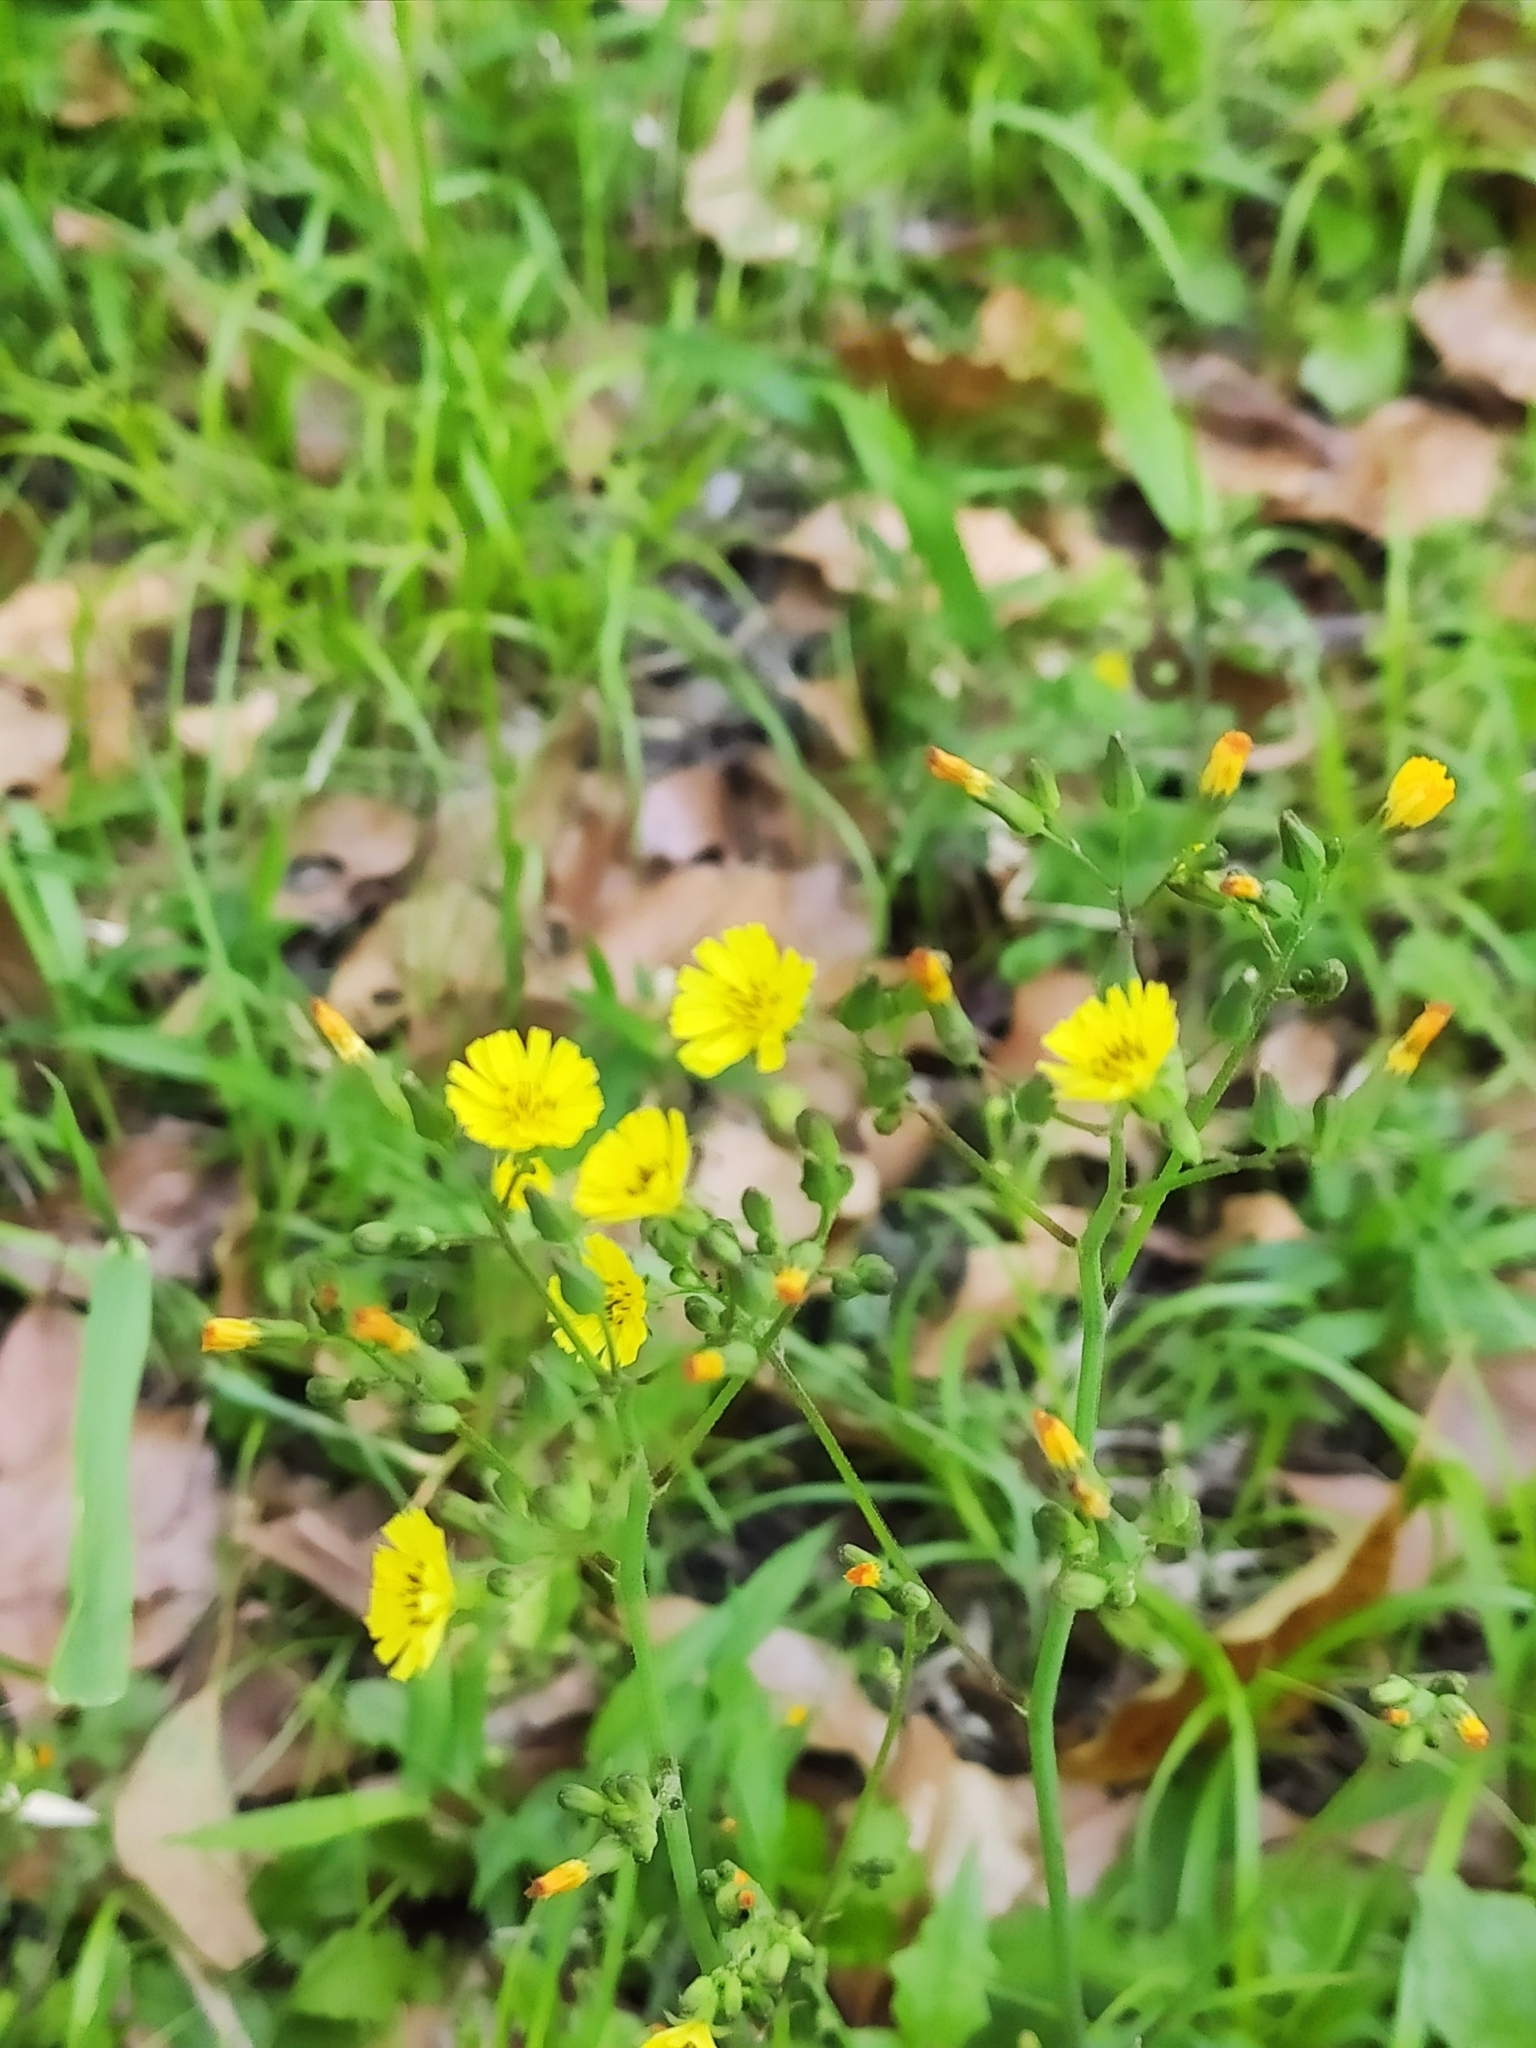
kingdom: Plantae
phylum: Tracheophyta
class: Magnoliopsida
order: Asterales
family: Asteraceae
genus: Youngia
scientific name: Youngia japonica
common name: Oriental false hawksbeard
